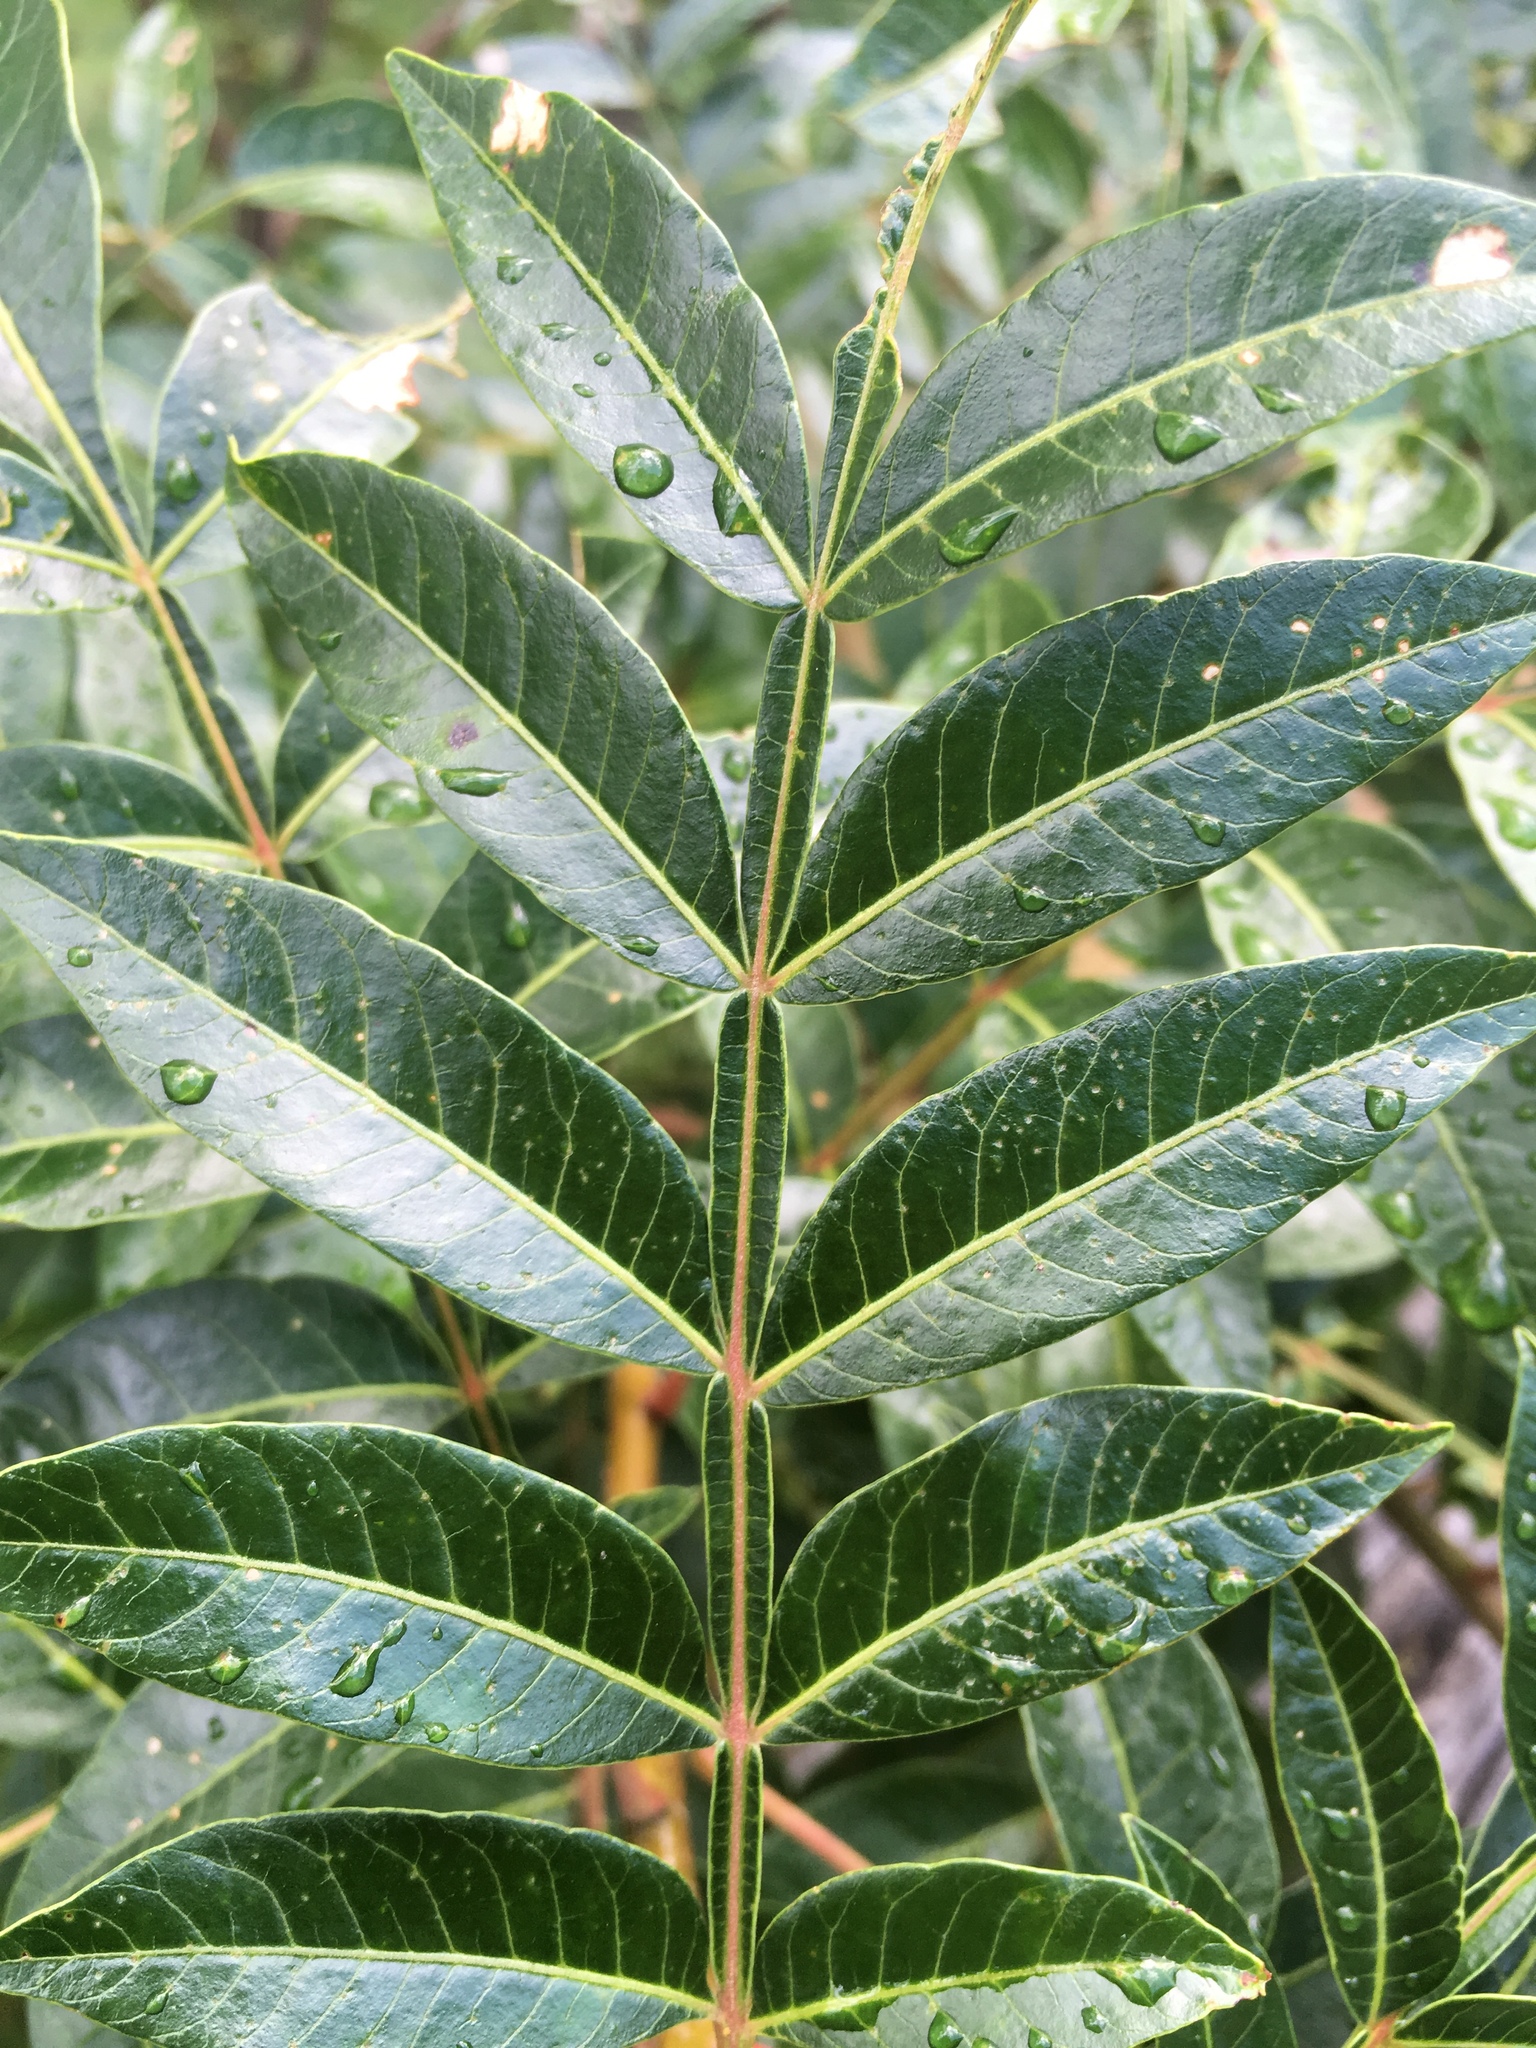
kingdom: Plantae
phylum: Tracheophyta
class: Magnoliopsida
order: Sapindales
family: Anacardiaceae
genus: Rhus
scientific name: Rhus copallina
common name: Shining sumac
